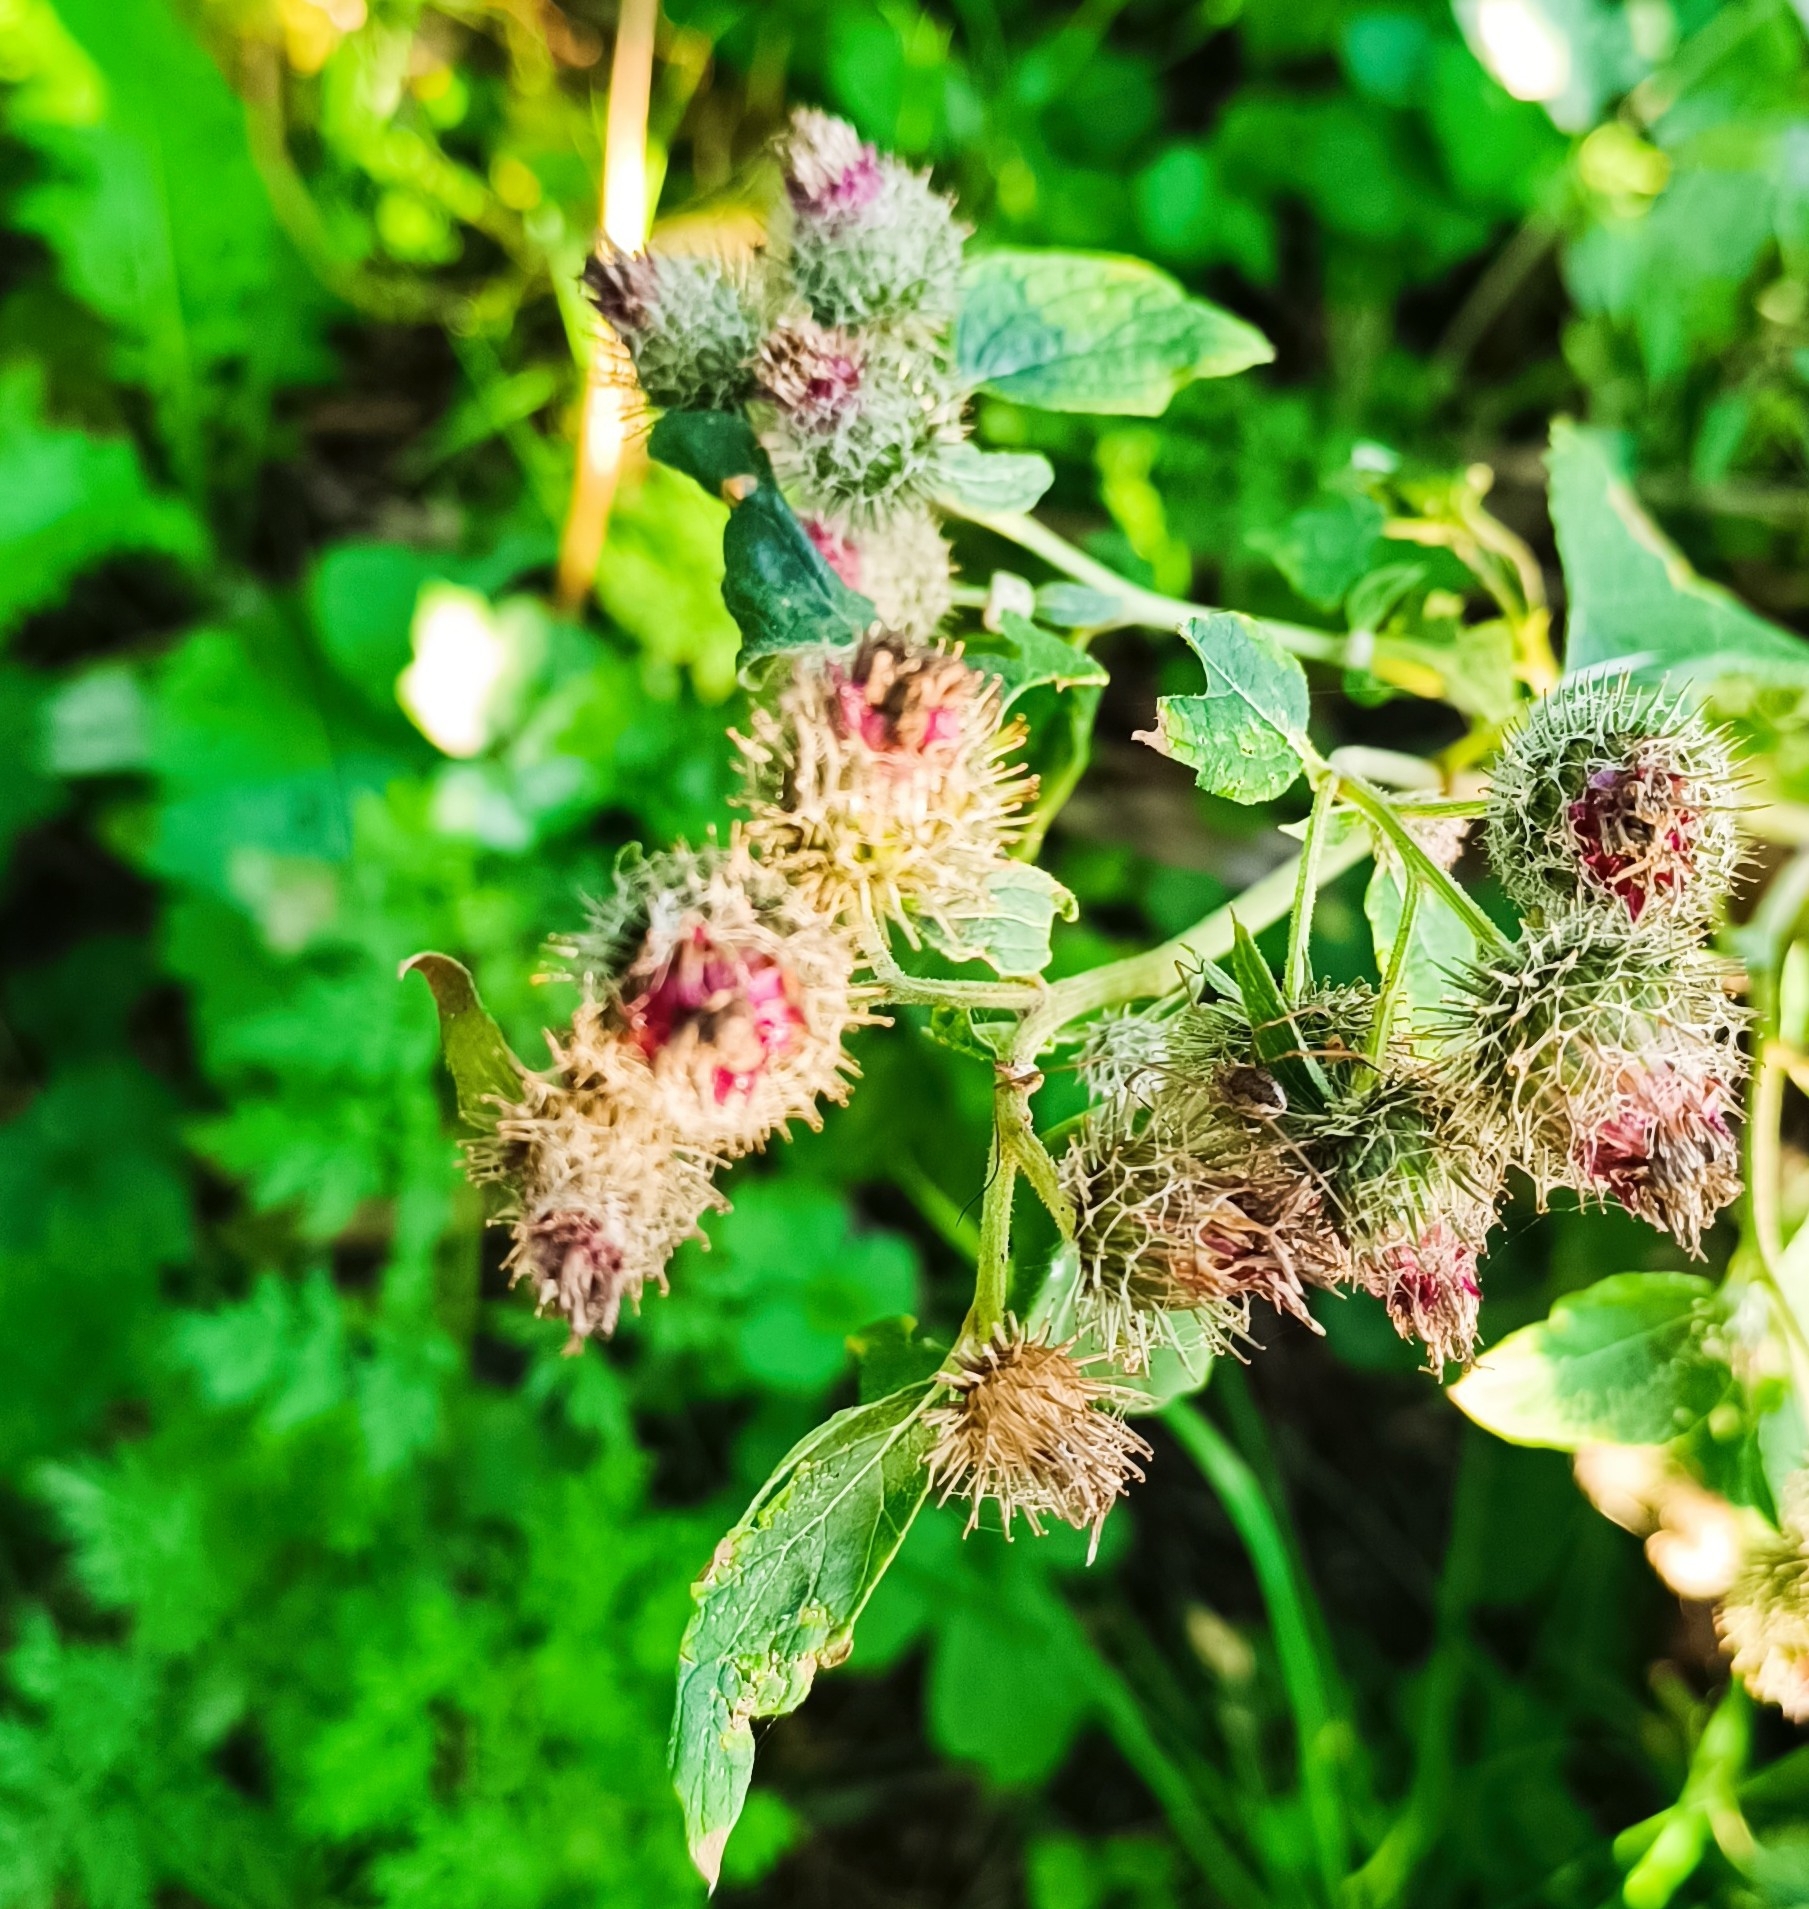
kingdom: Plantae
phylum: Tracheophyta
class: Magnoliopsida
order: Asterales
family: Asteraceae
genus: Arctium
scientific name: Arctium tomentosum
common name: Woolly burdock
